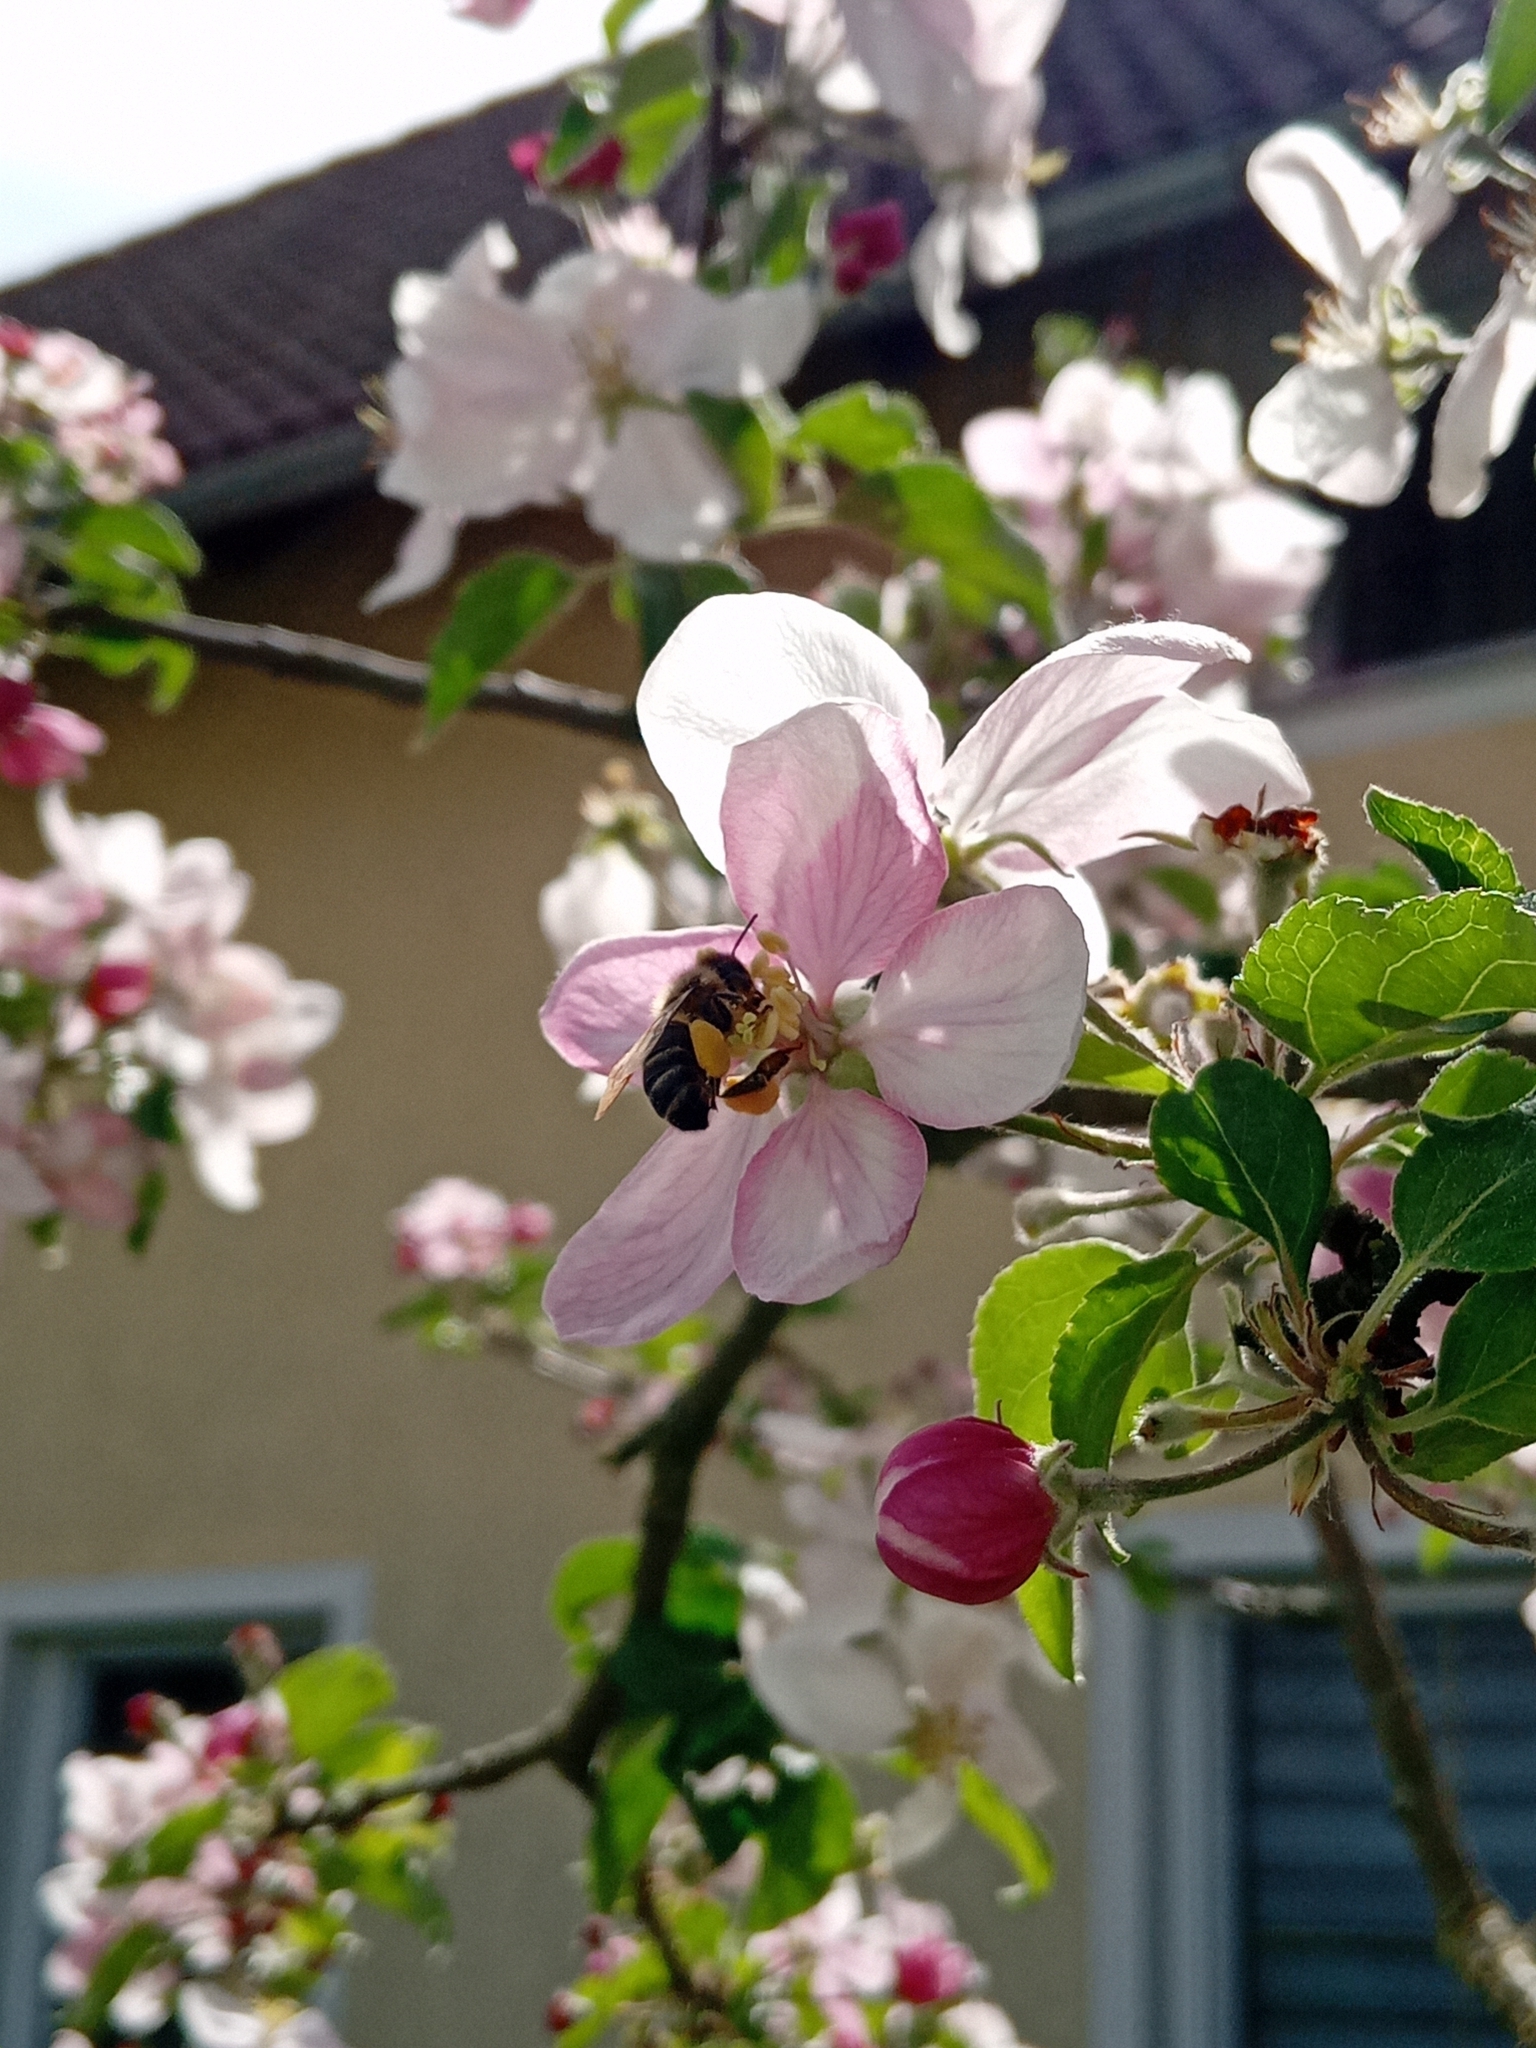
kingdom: Animalia
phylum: Arthropoda
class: Insecta
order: Hymenoptera
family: Apidae
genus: Apis
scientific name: Apis mellifera
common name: Honey bee
